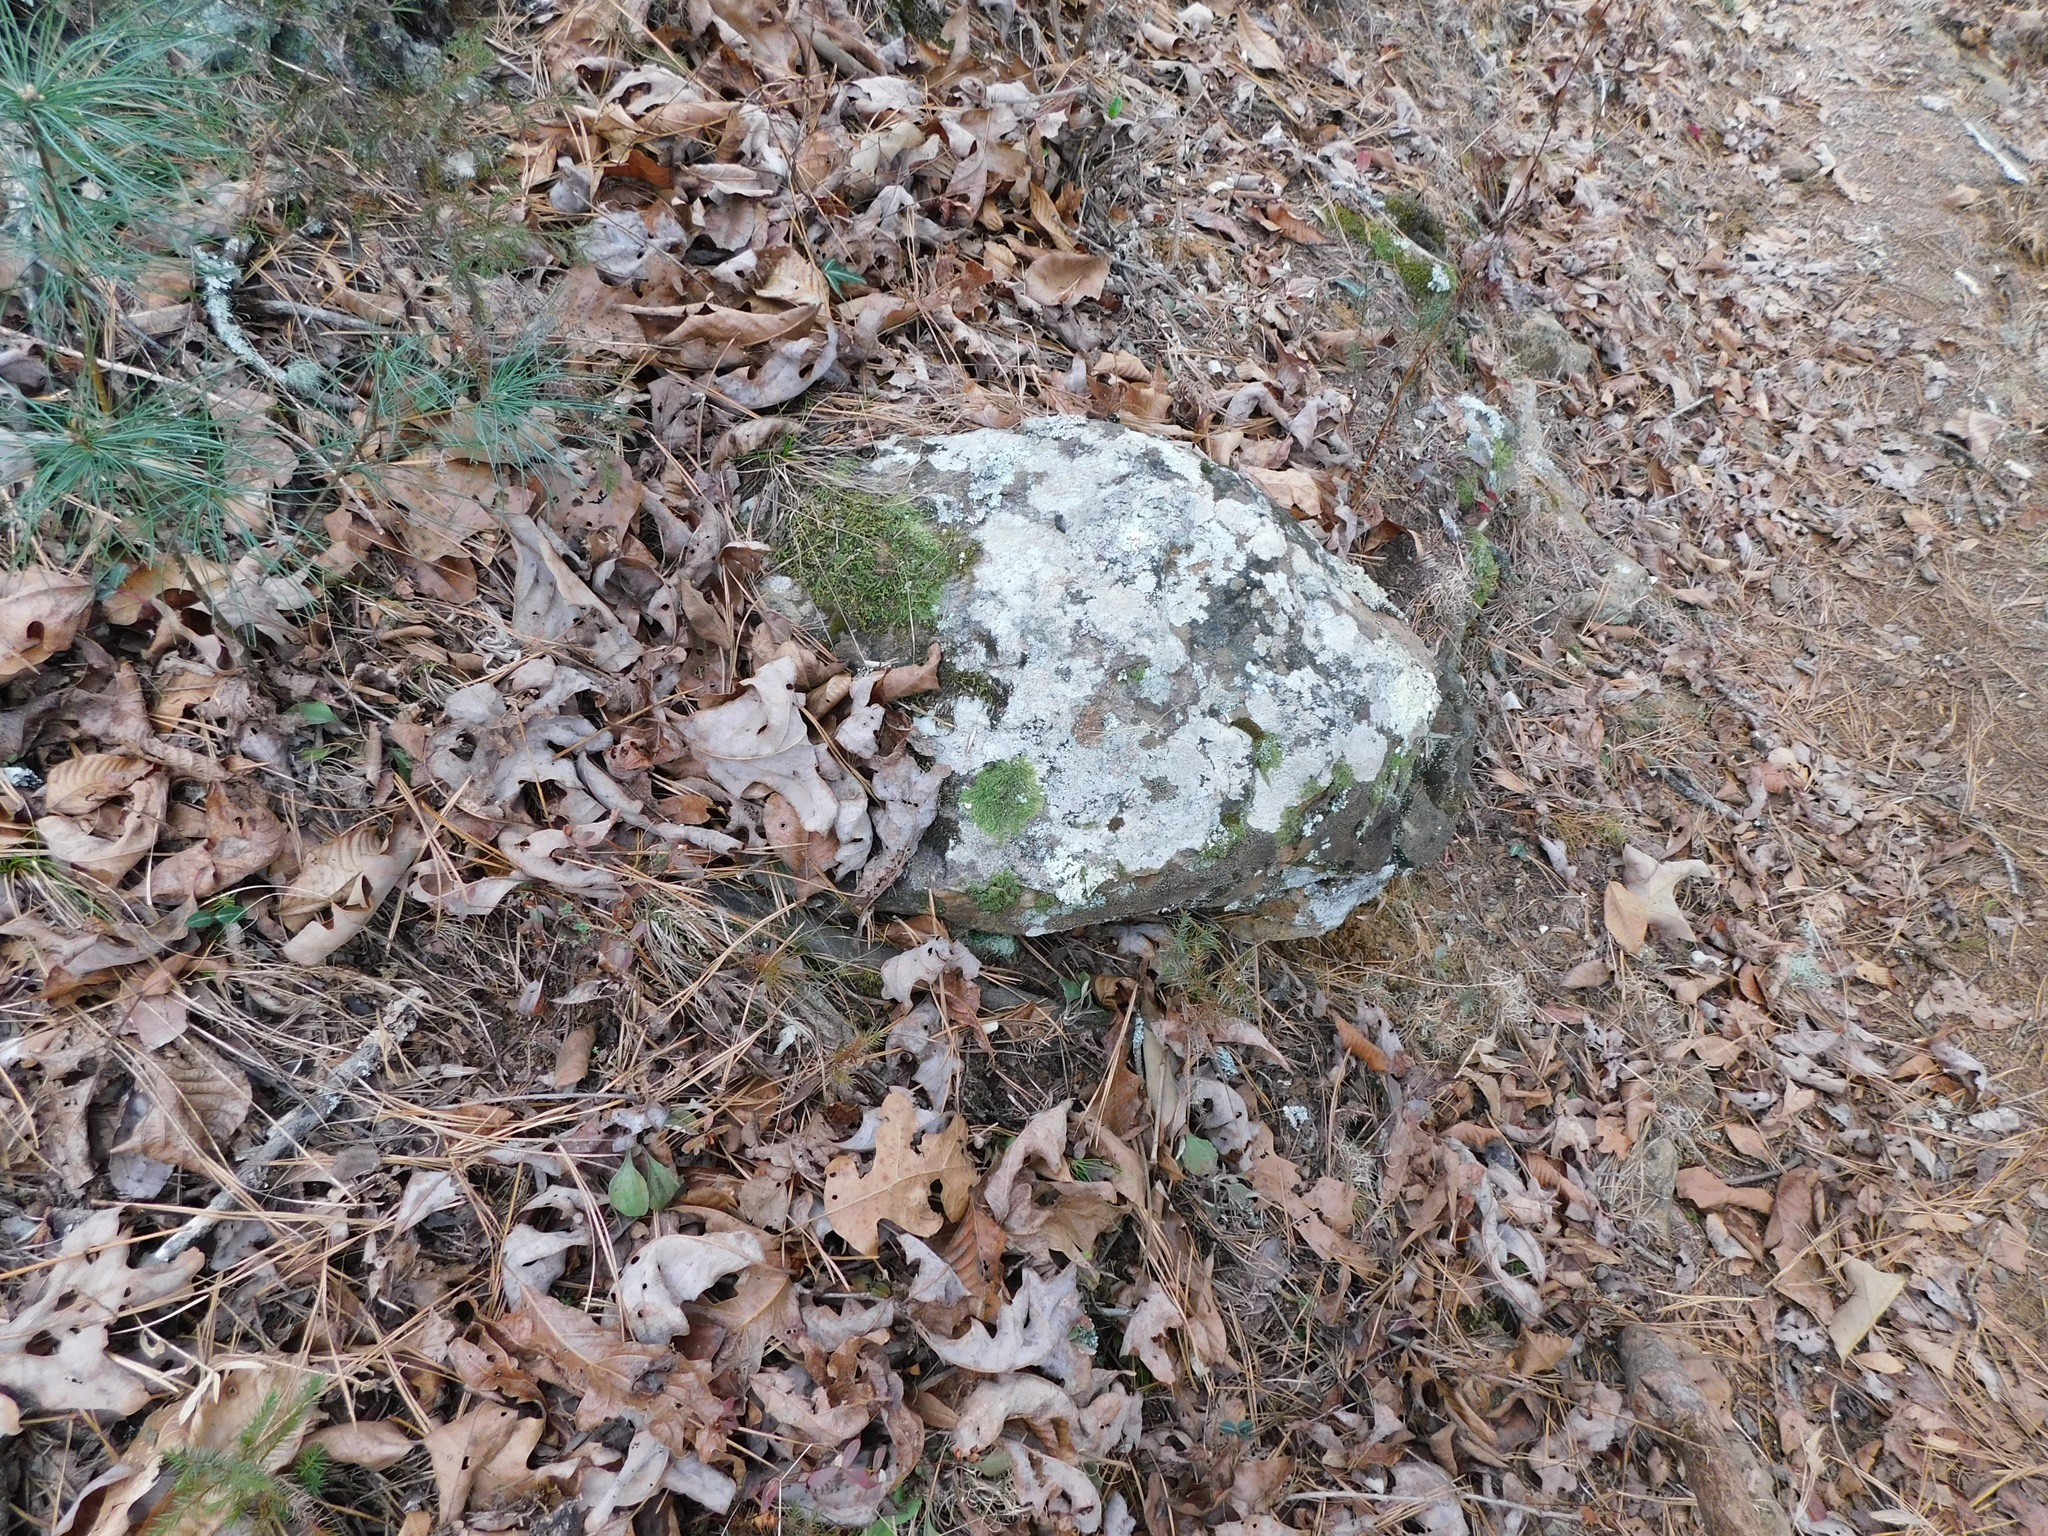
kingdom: Plantae
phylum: Marchantiophyta
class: Jungermanniopsida
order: Porellales
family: Radulaceae
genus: Radula
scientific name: Radula complanata
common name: Flat-leaved scalewort
